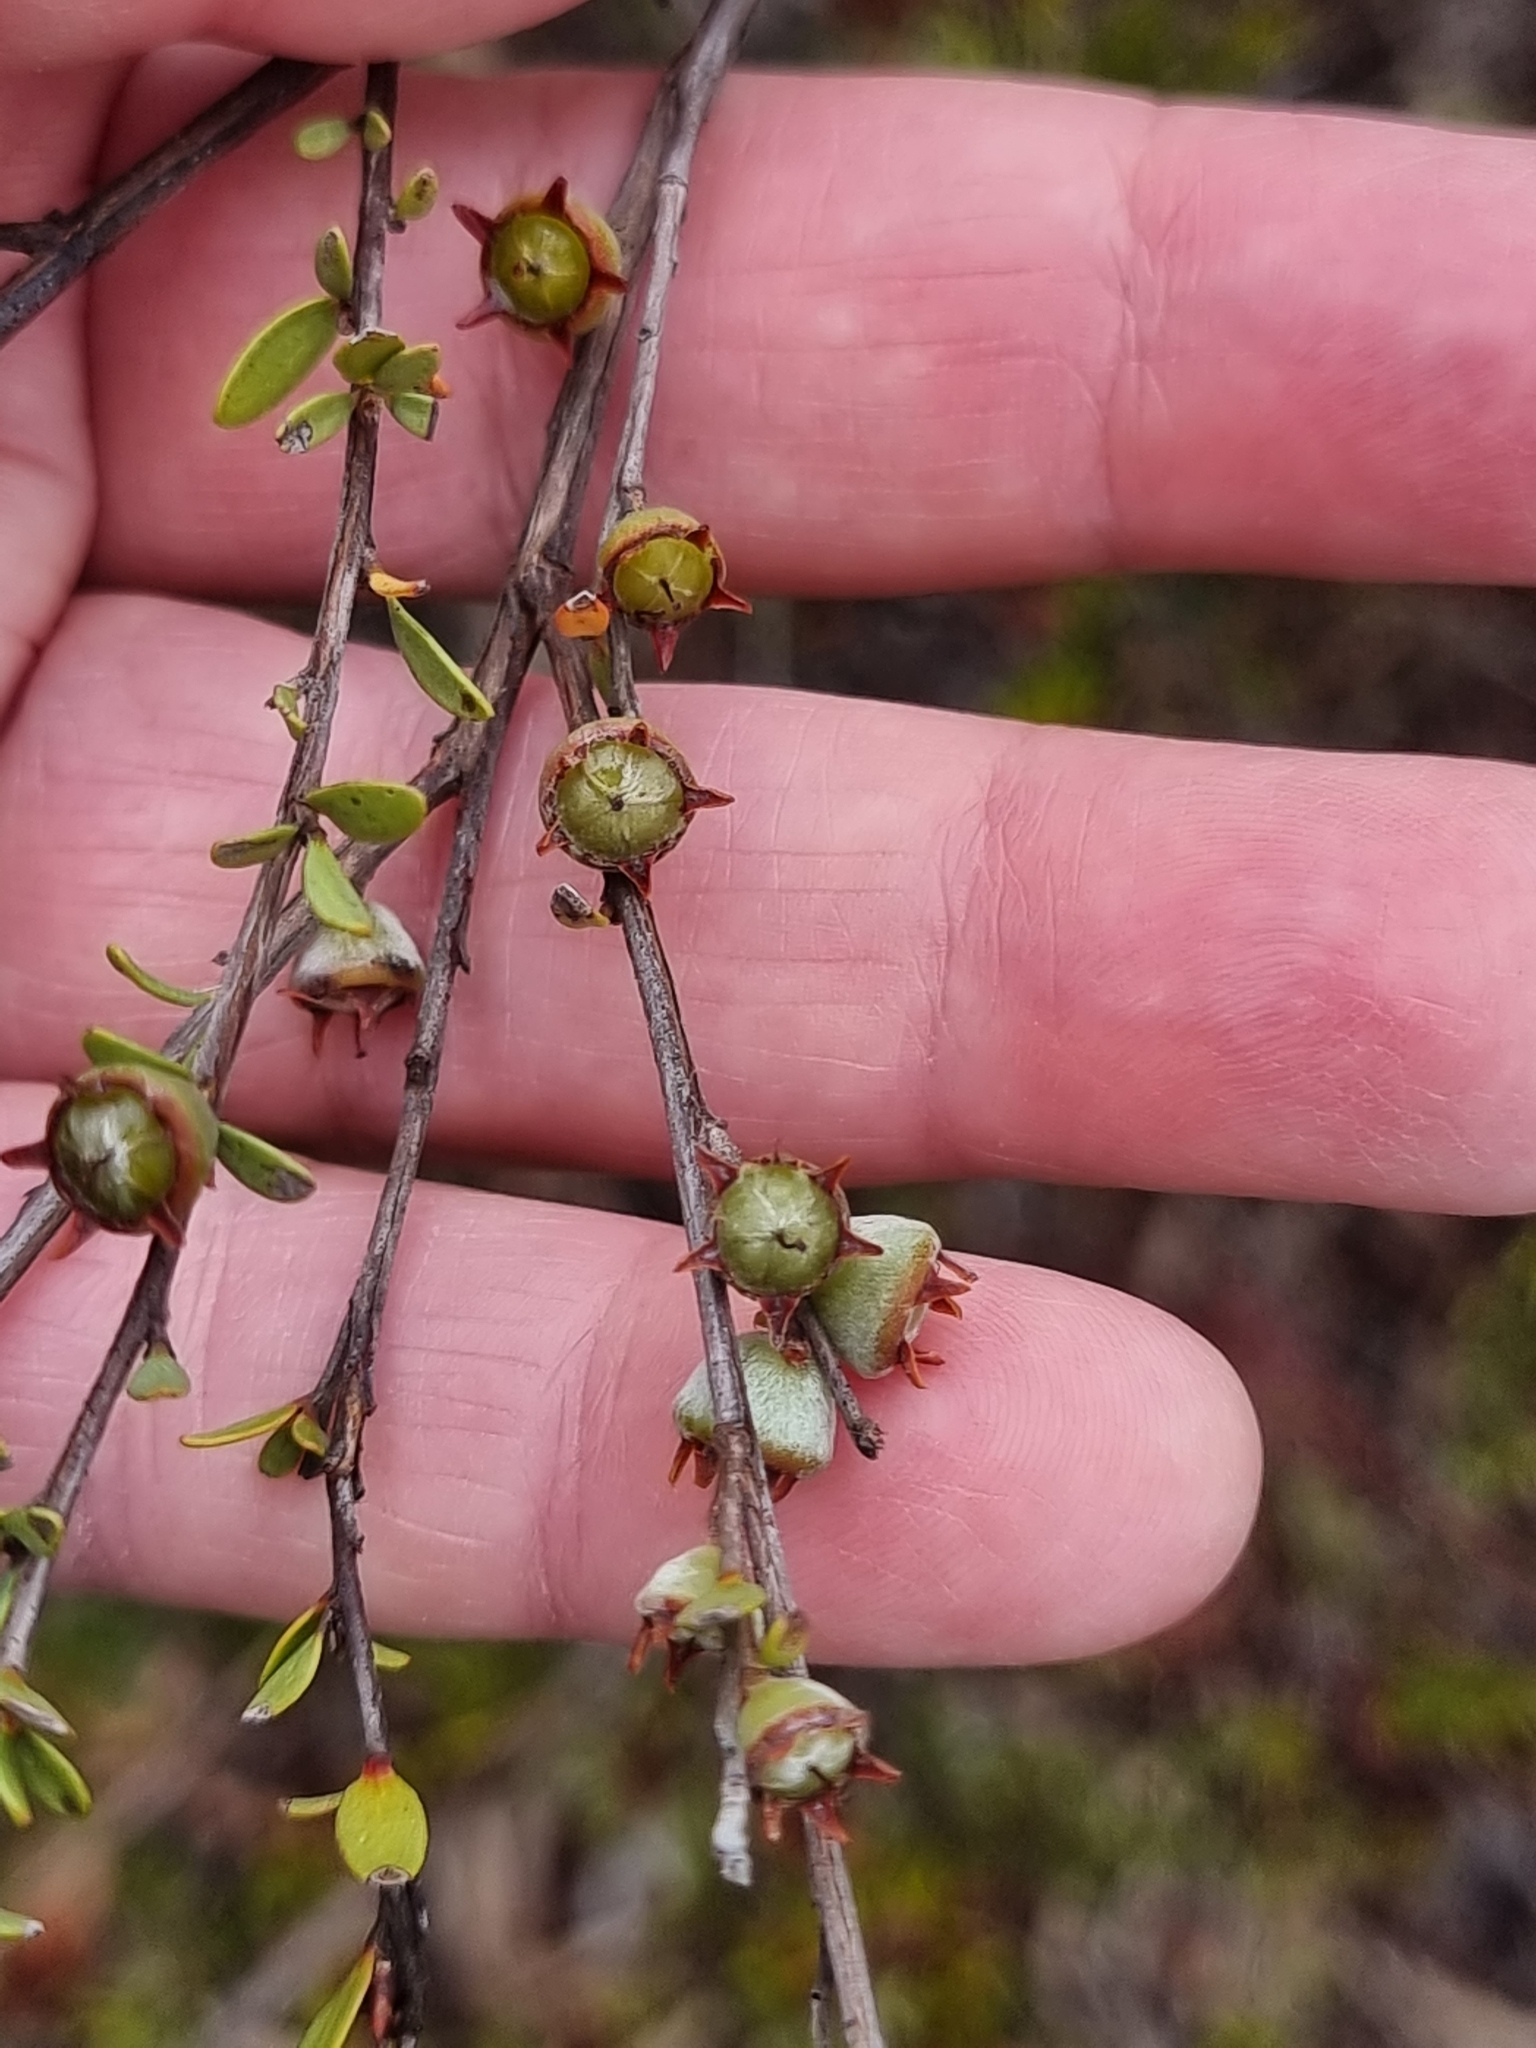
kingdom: Plantae
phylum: Tracheophyta
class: Magnoliopsida
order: Myrtales
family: Myrtaceae
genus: Leptospermum
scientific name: Leptospermum semibaccatum
